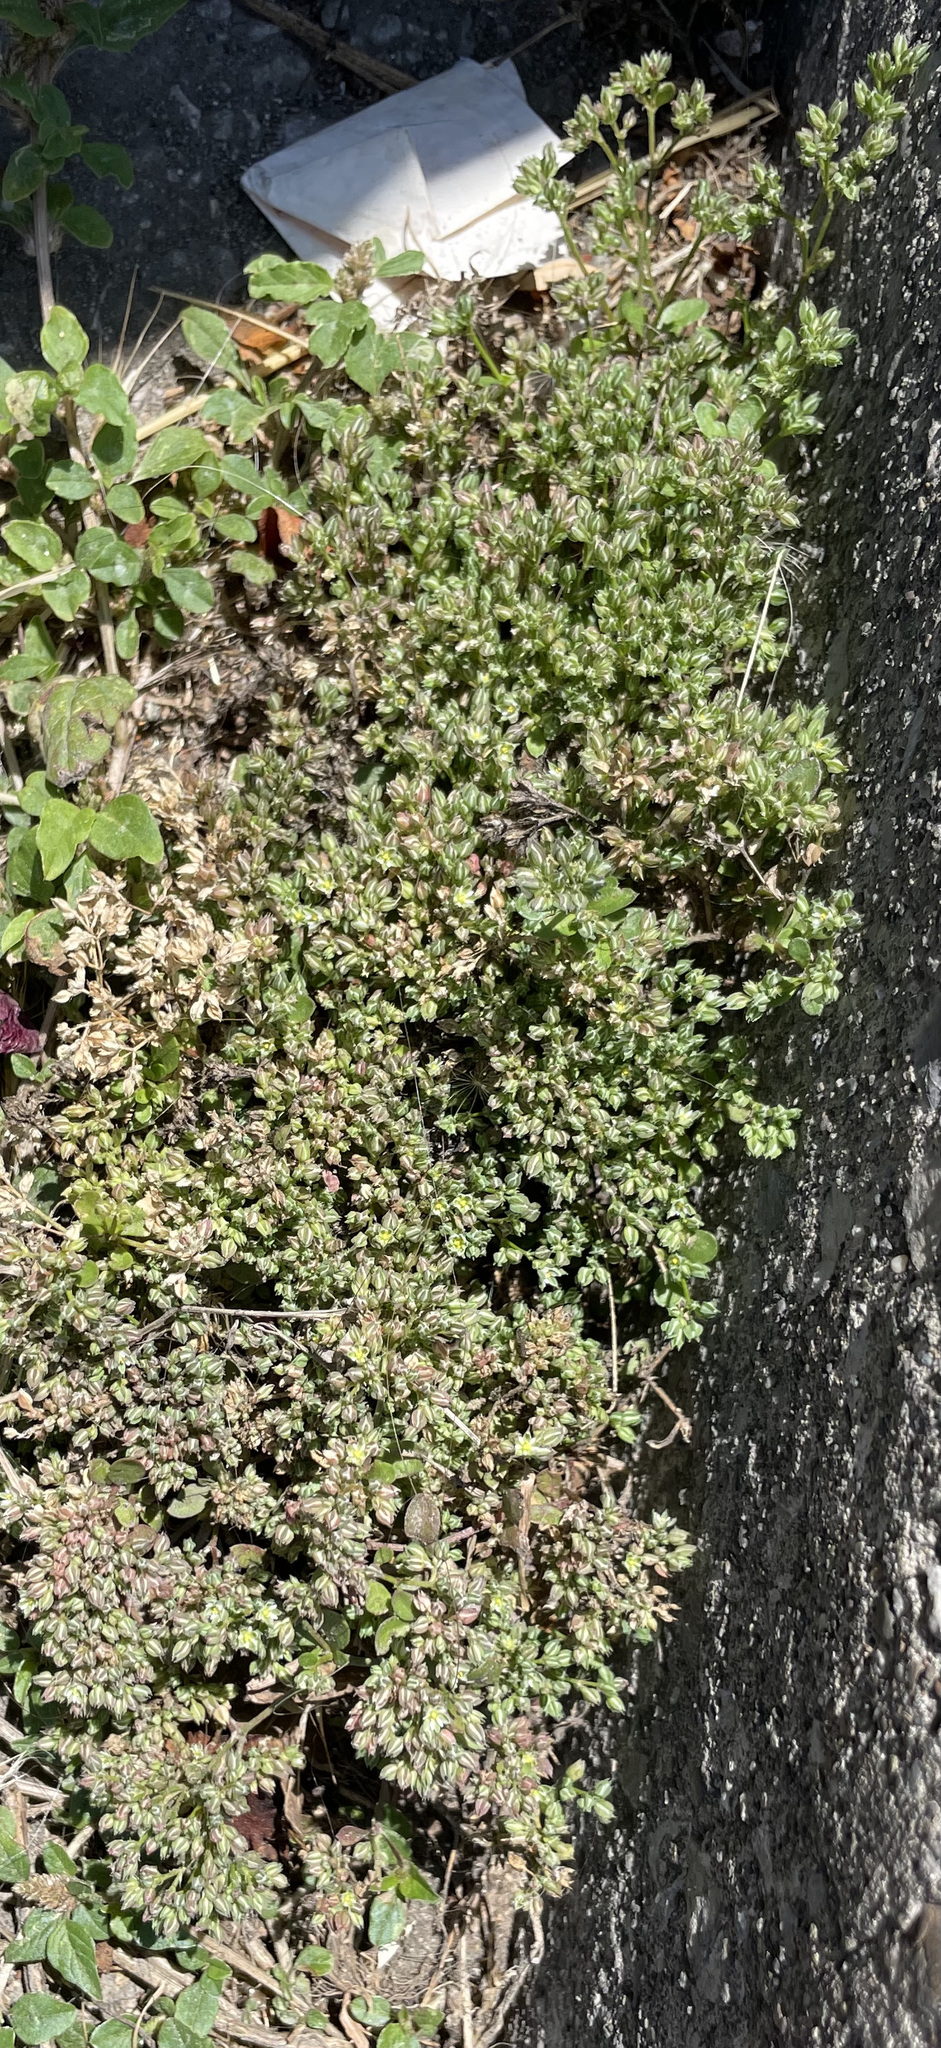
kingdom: Plantae
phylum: Tracheophyta
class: Magnoliopsida
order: Caryophyllales
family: Caryophyllaceae
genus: Polycarpon
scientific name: Polycarpon tetraphyllum
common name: Four-leaved all-seed
